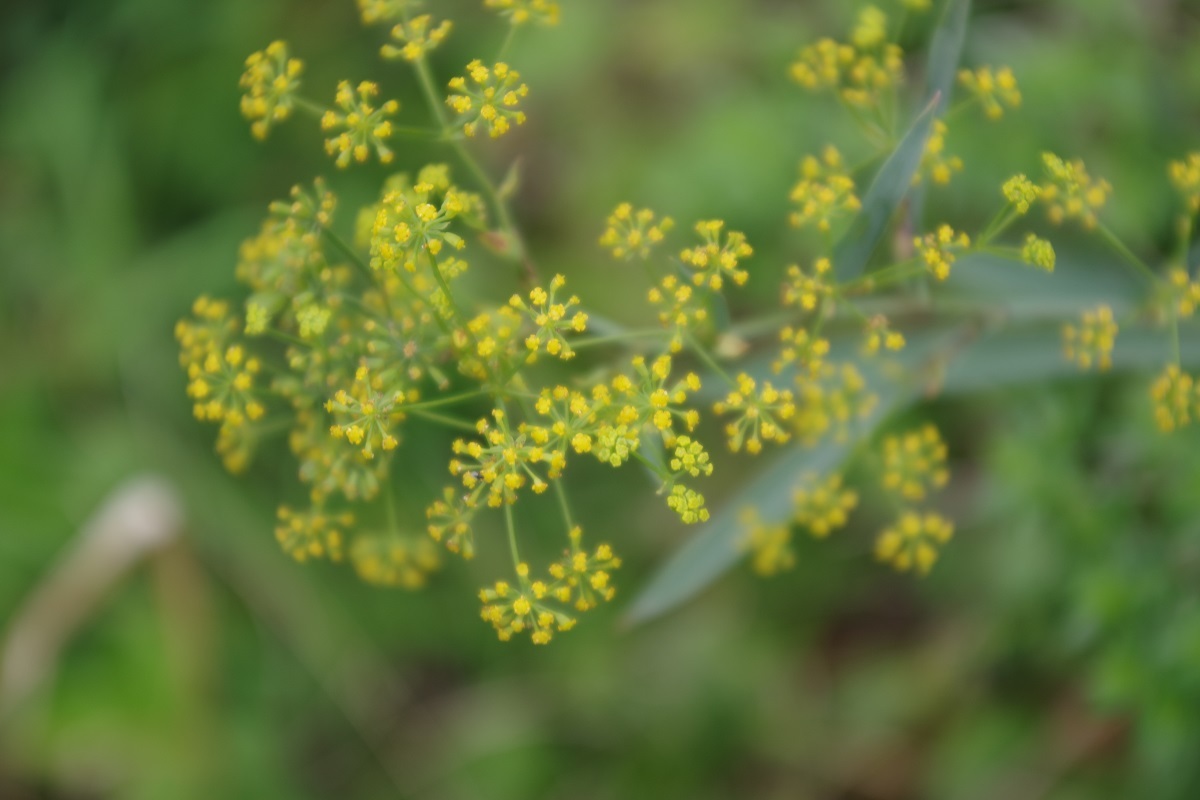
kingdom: Plantae
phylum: Tracheophyta
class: Magnoliopsida
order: Apiales
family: Apiaceae
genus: Bupleurum
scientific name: Bupleurum falcatum
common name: Sickle-leaved hare's-ear
